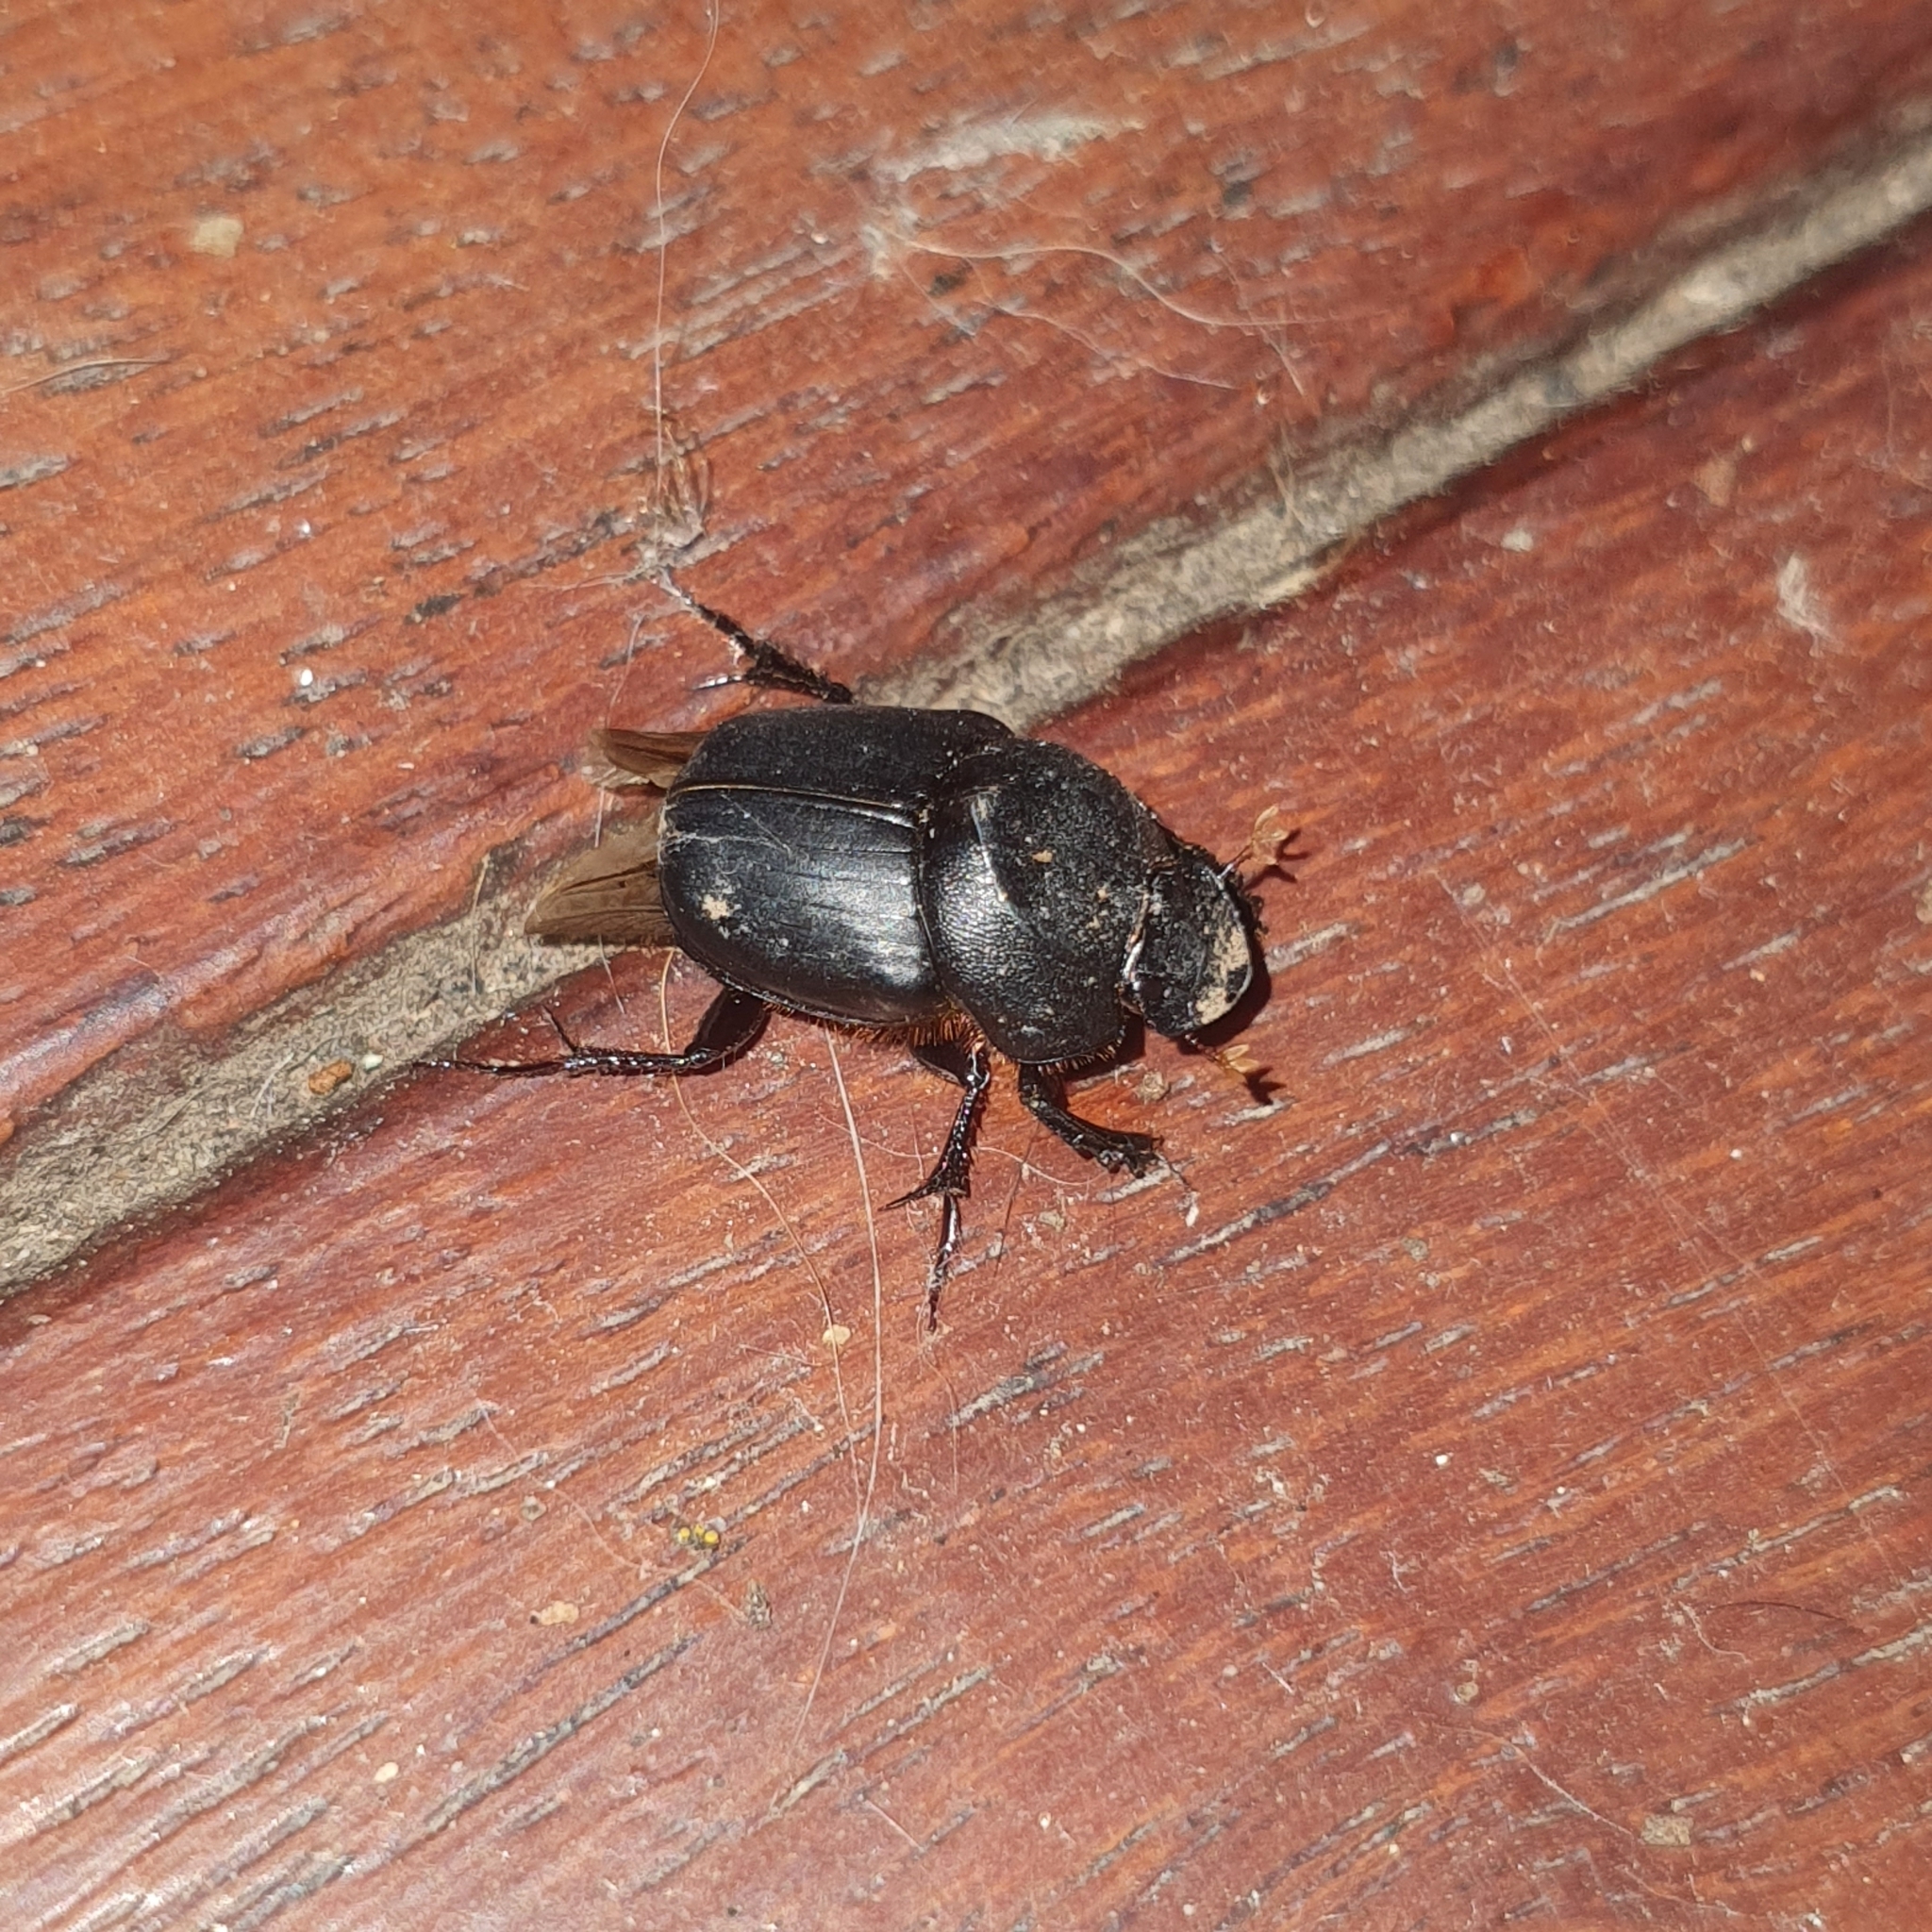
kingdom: Animalia
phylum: Arthropoda
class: Insecta
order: Coleoptera
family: Scarabaeidae
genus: Onthophagus
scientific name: Onthophagus declivis
